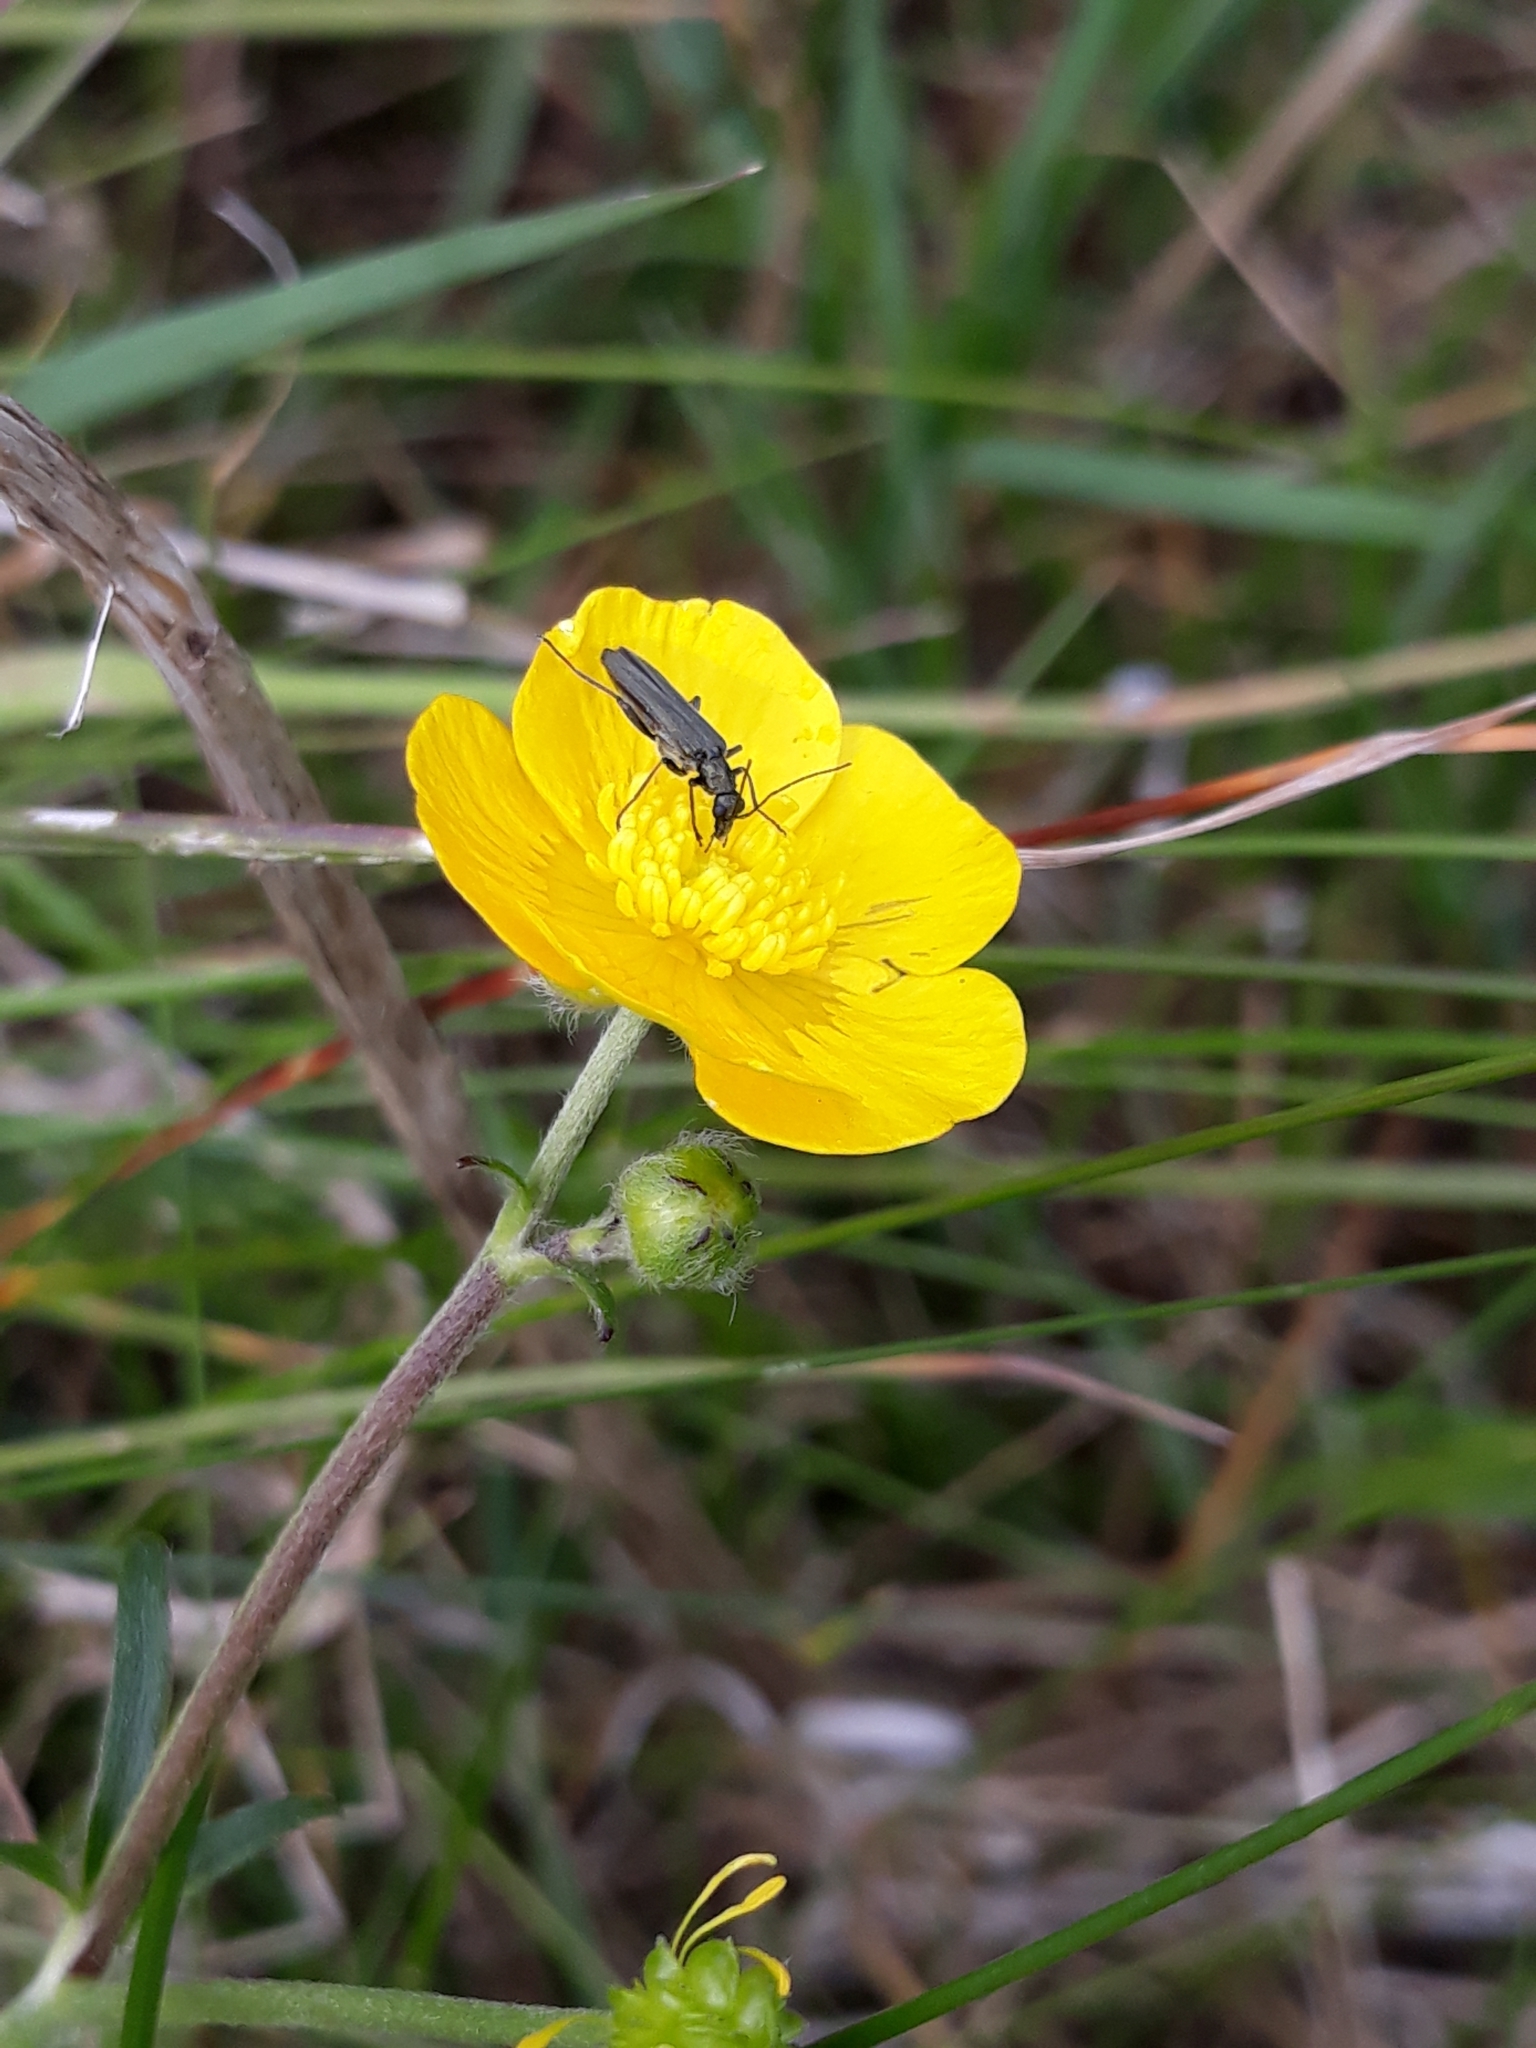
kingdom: Animalia
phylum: Arthropoda
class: Insecta
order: Coleoptera
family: Oedemeridae
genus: Oedemera
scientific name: Oedemera lurida
